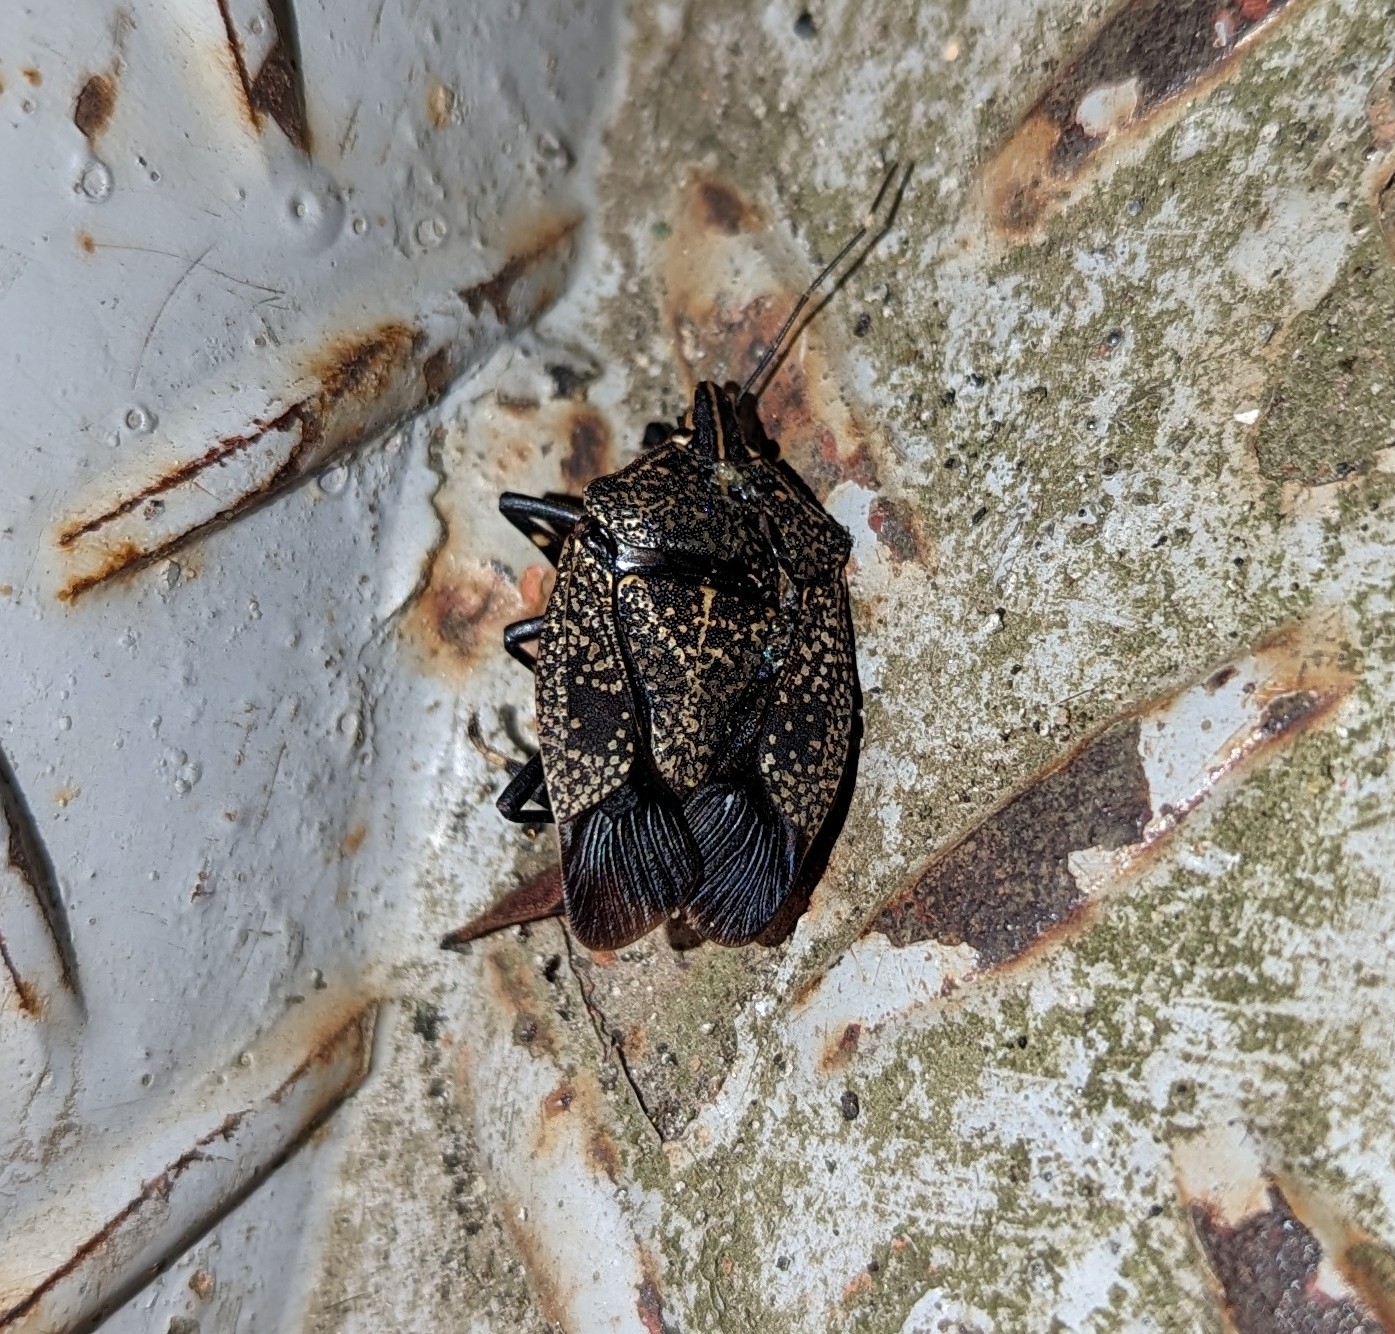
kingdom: Animalia
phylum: Arthropoda
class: Insecta
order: Hemiptera
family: Pentatomidae
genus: Erthesina
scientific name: Erthesina fullo
